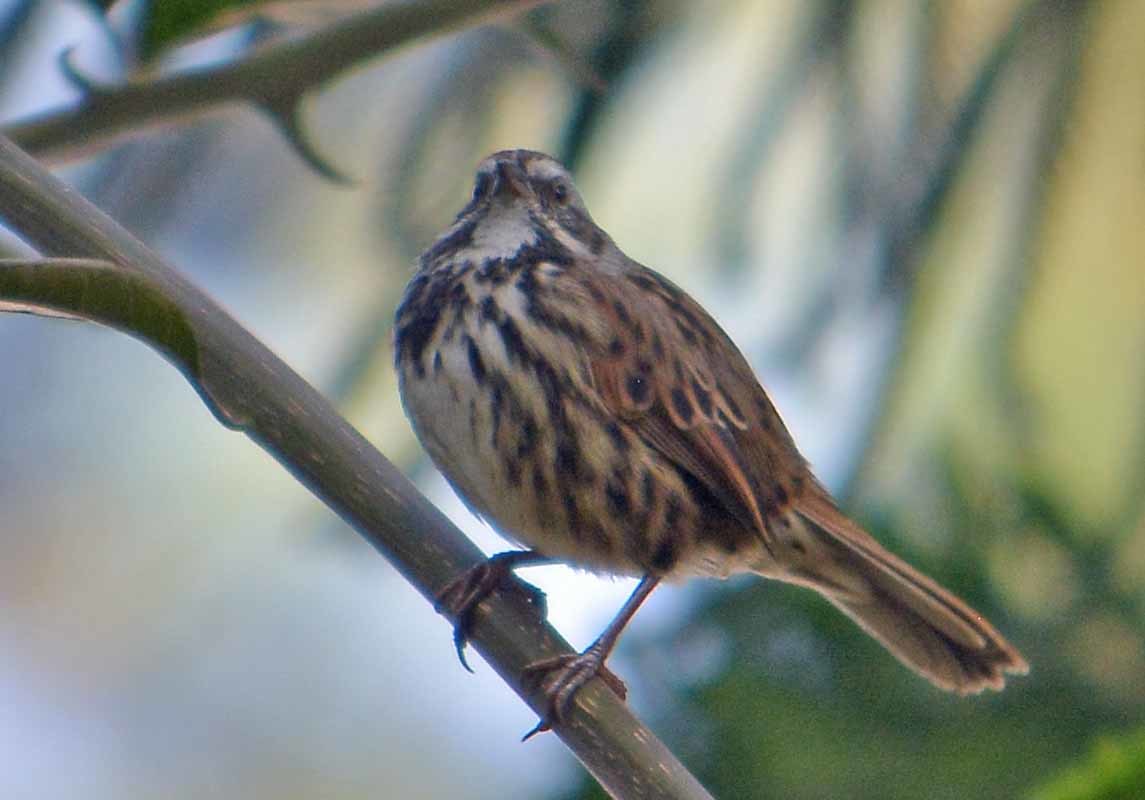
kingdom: Animalia
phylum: Chordata
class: Aves
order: Passeriformes
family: Passerellidae
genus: Melospiza
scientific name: Melospiza melodia
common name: Song sparrow
